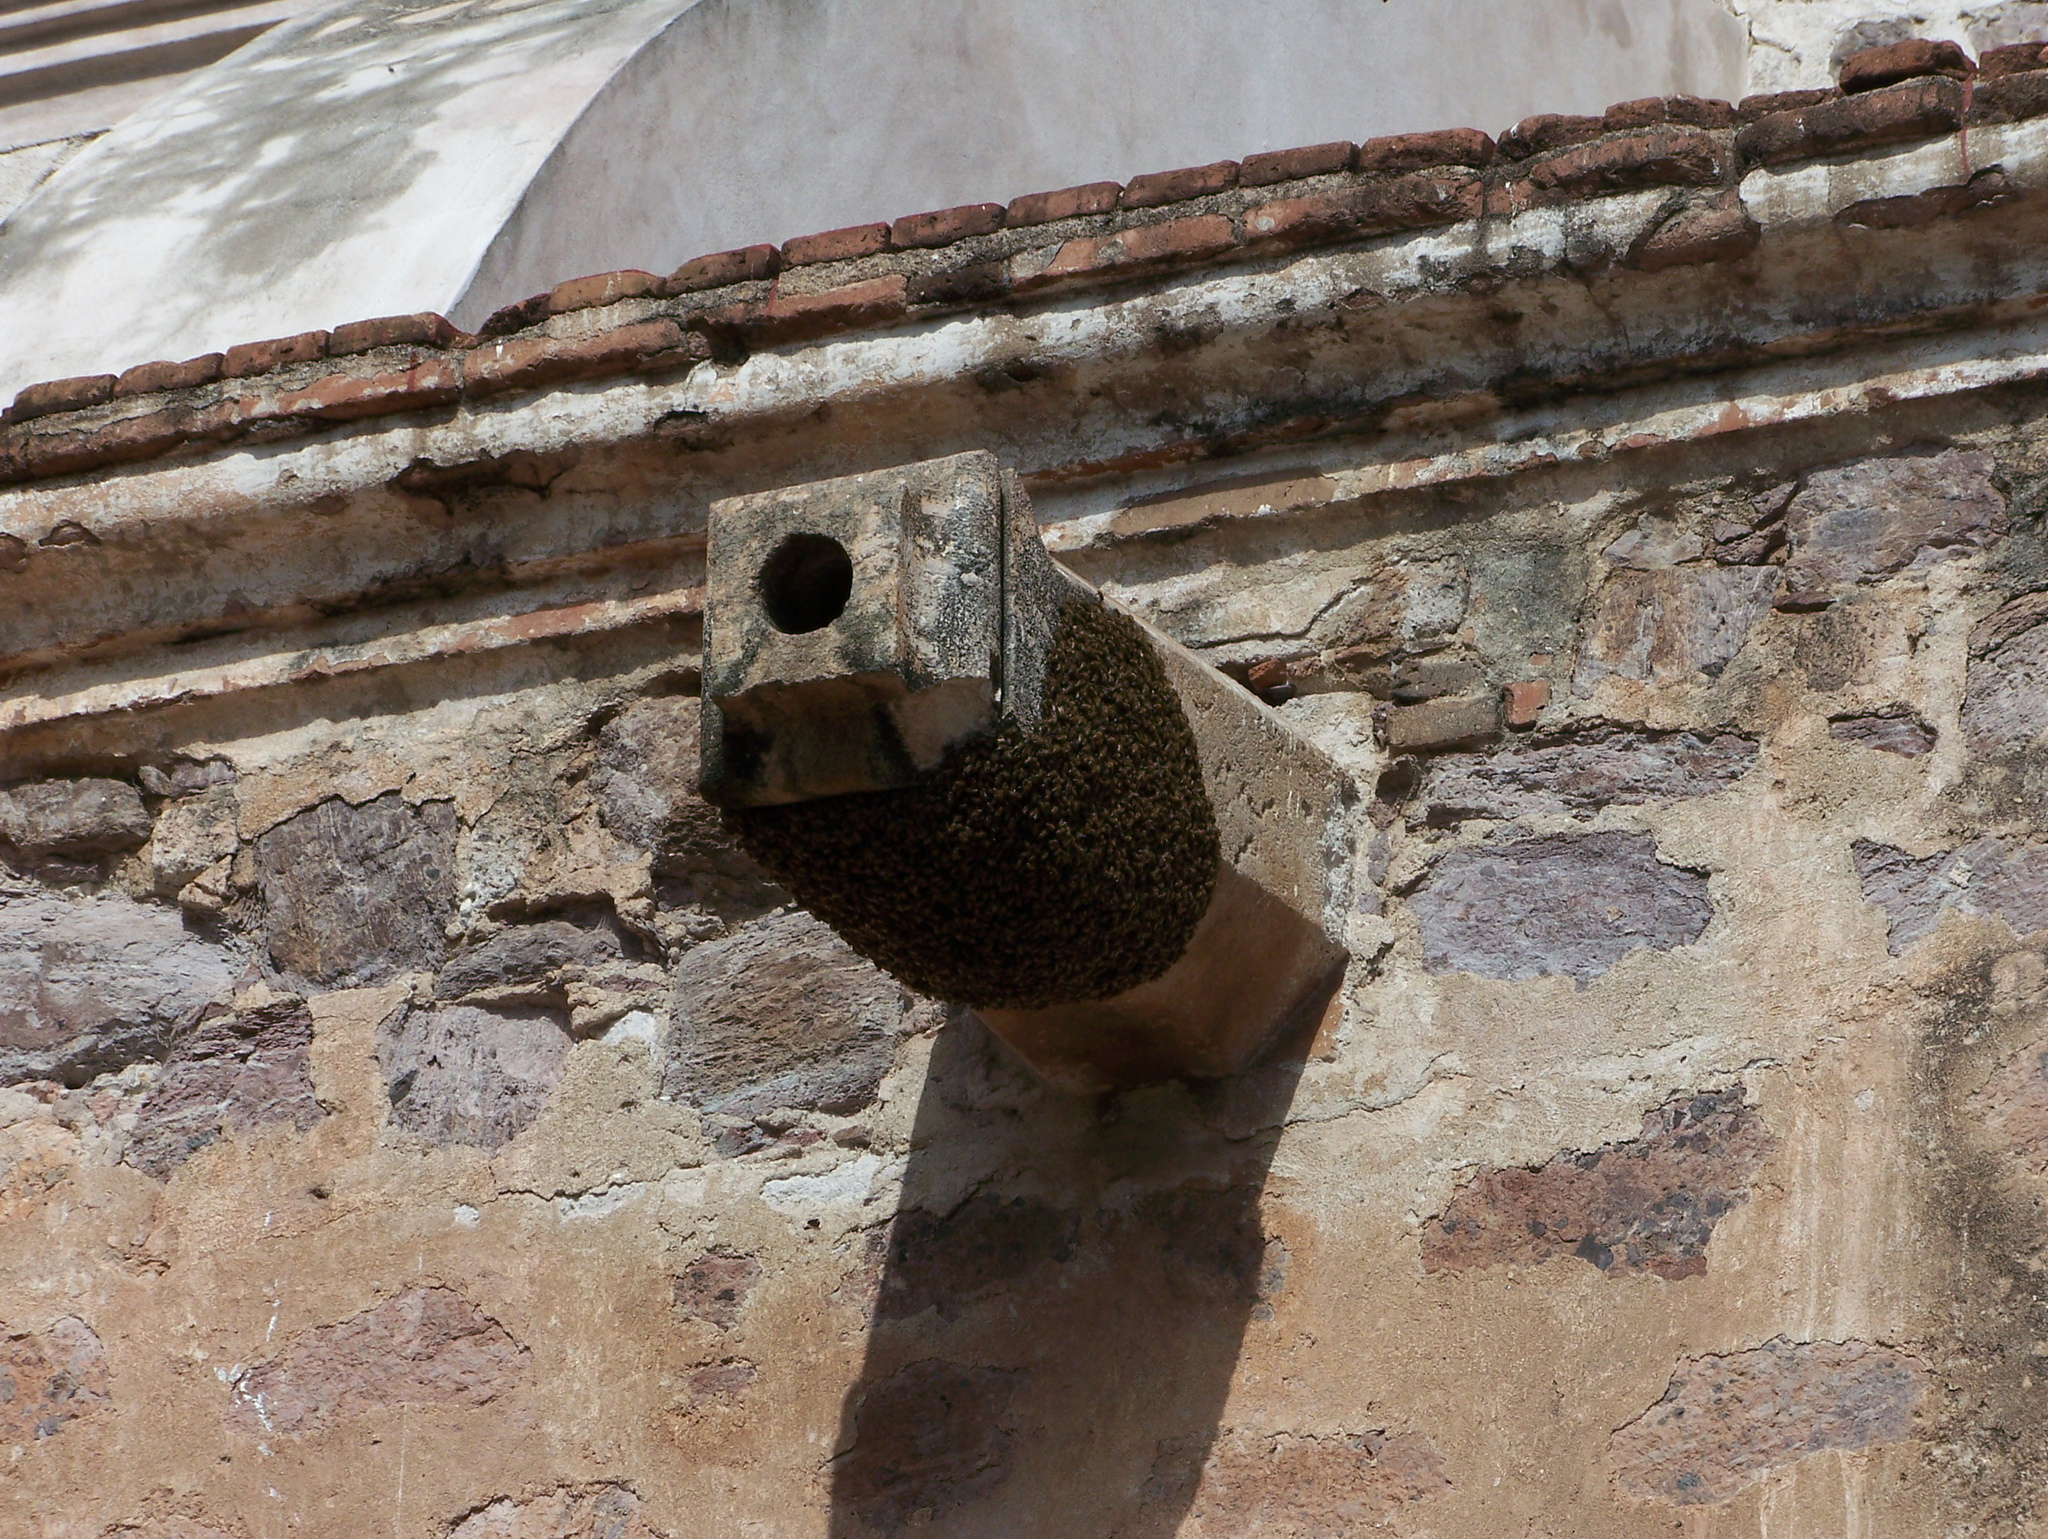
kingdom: Animalia
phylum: Arthropoda
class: Insecta
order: Hymenoptera
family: Apidae
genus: Apis
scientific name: Apis mellifera
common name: Honey bee
